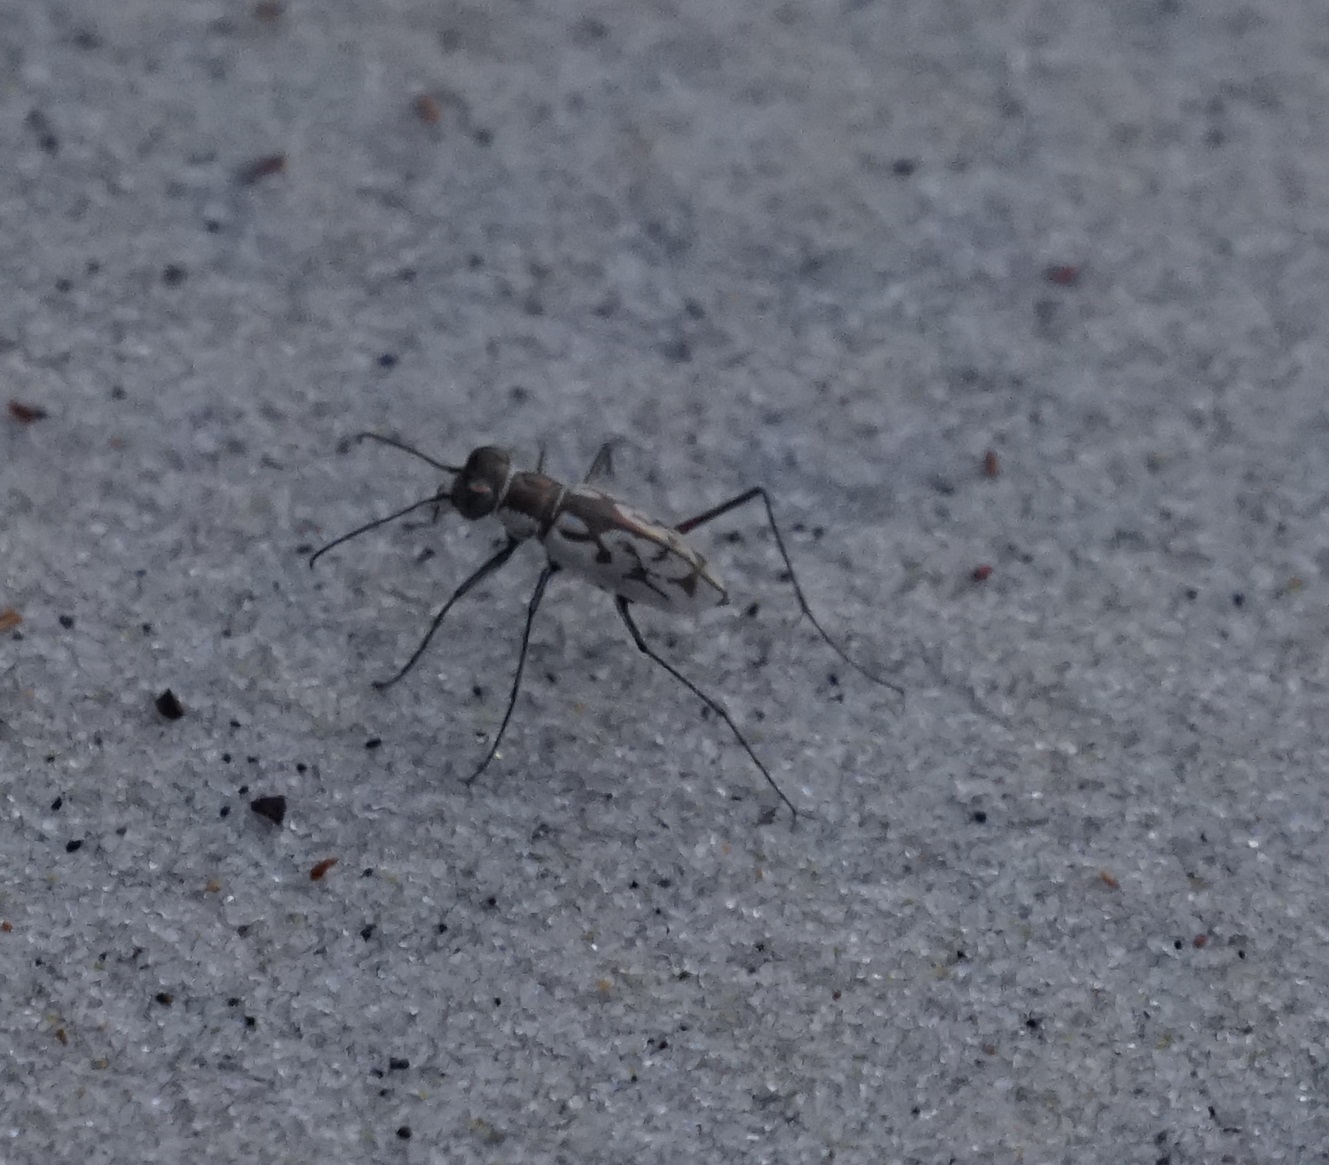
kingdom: Animalia
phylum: Arthropoda
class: Insecta
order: Coleoptera
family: Carabidae
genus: Hypaetha
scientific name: Hypaetha upsilon
